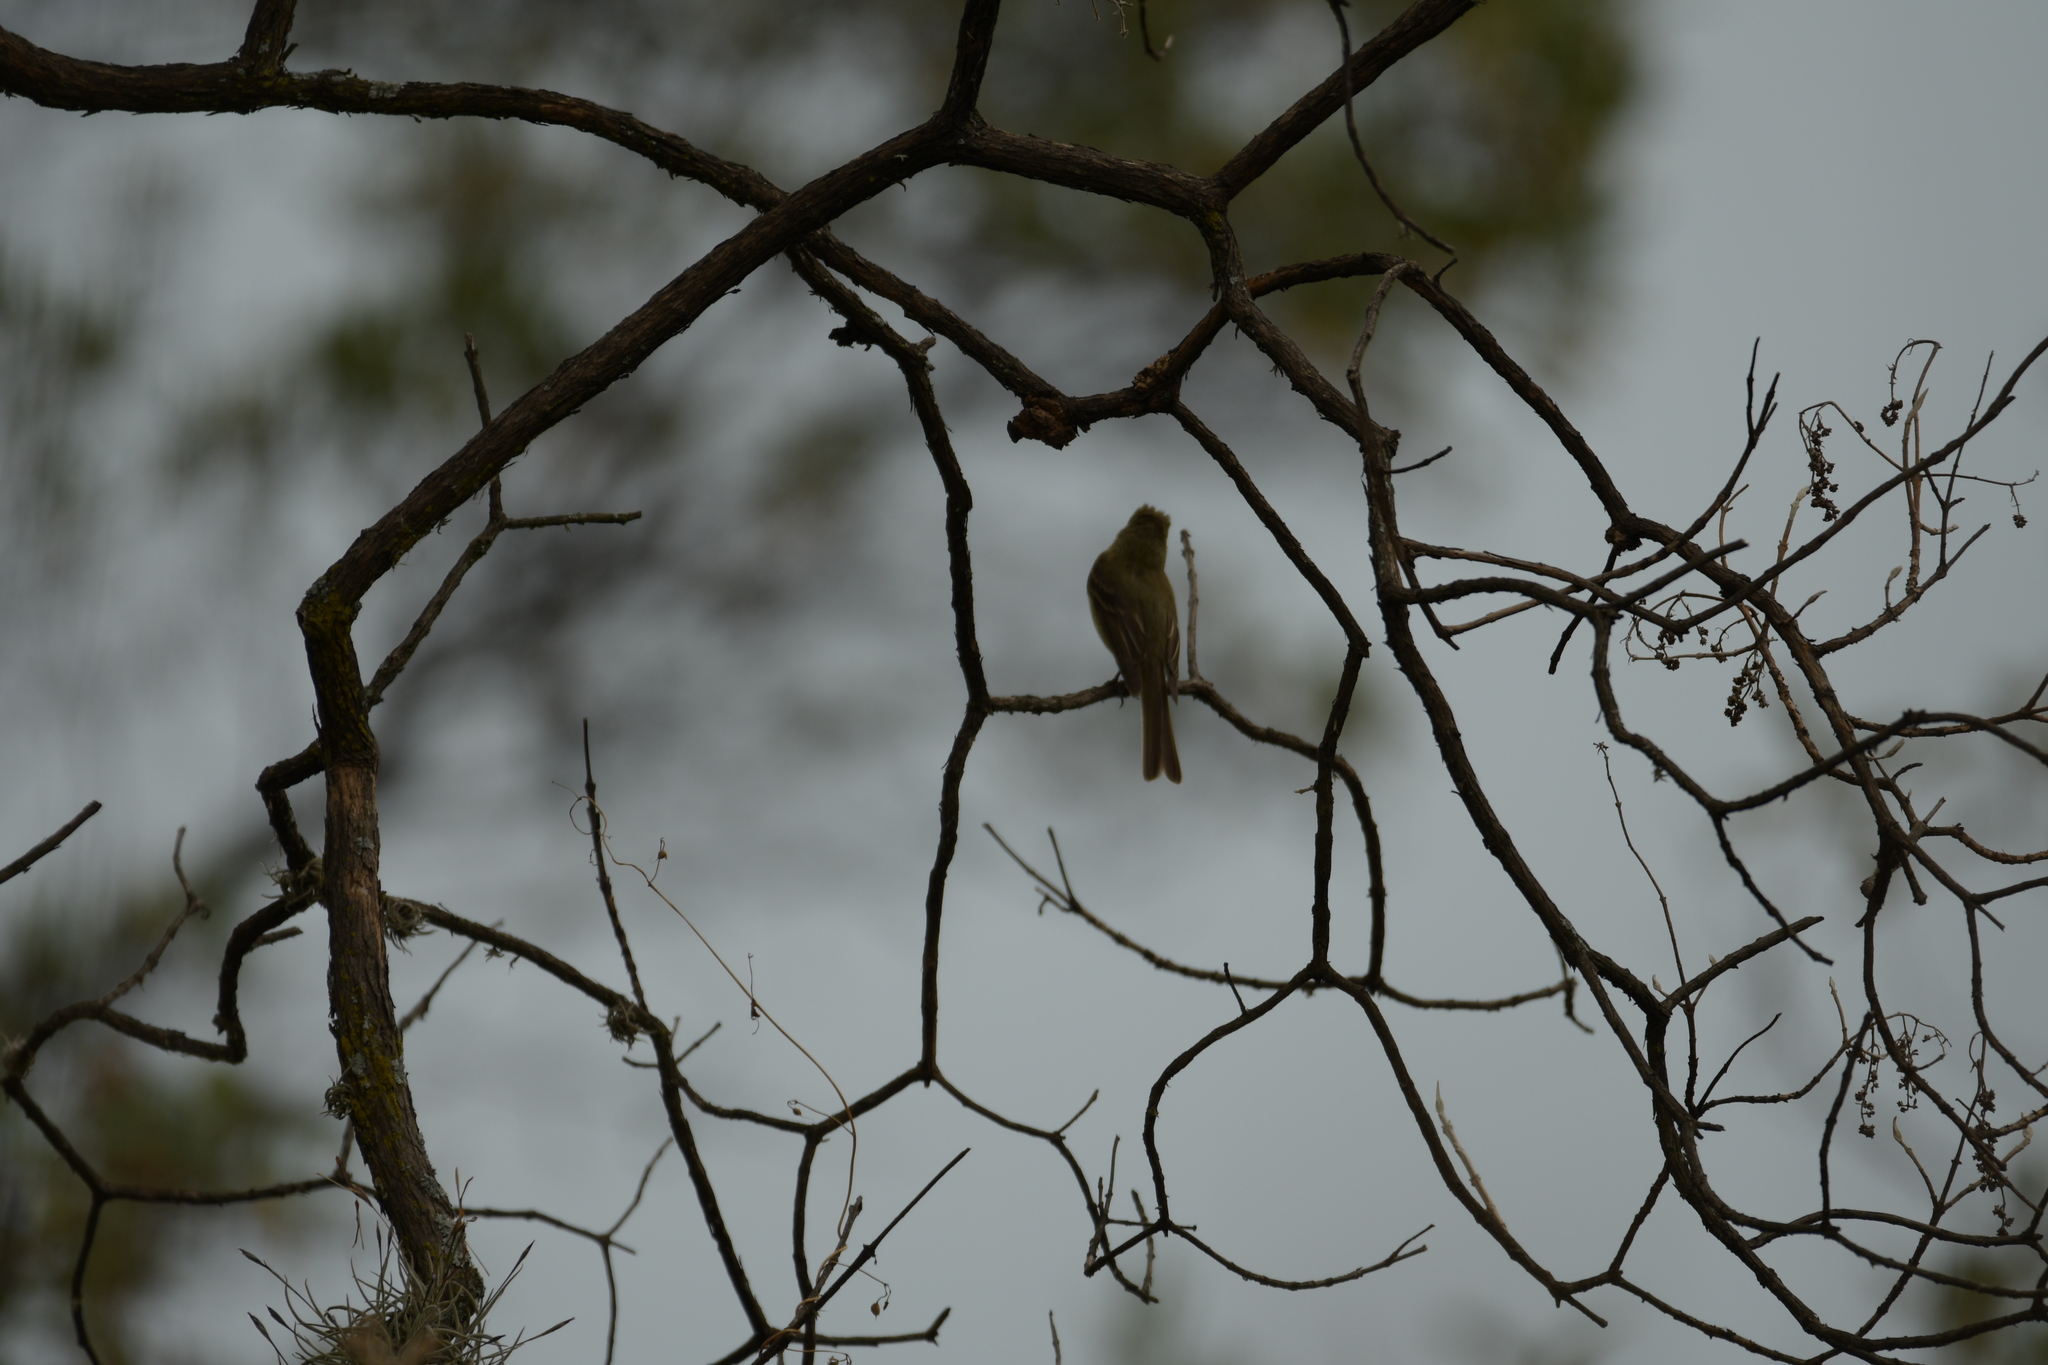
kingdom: Animalia
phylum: Chordata
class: Aves
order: Passeriformes
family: Tyrannidae
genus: Empidonax
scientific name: Empidonax difficilis
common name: Pacific-slope flycatcher
